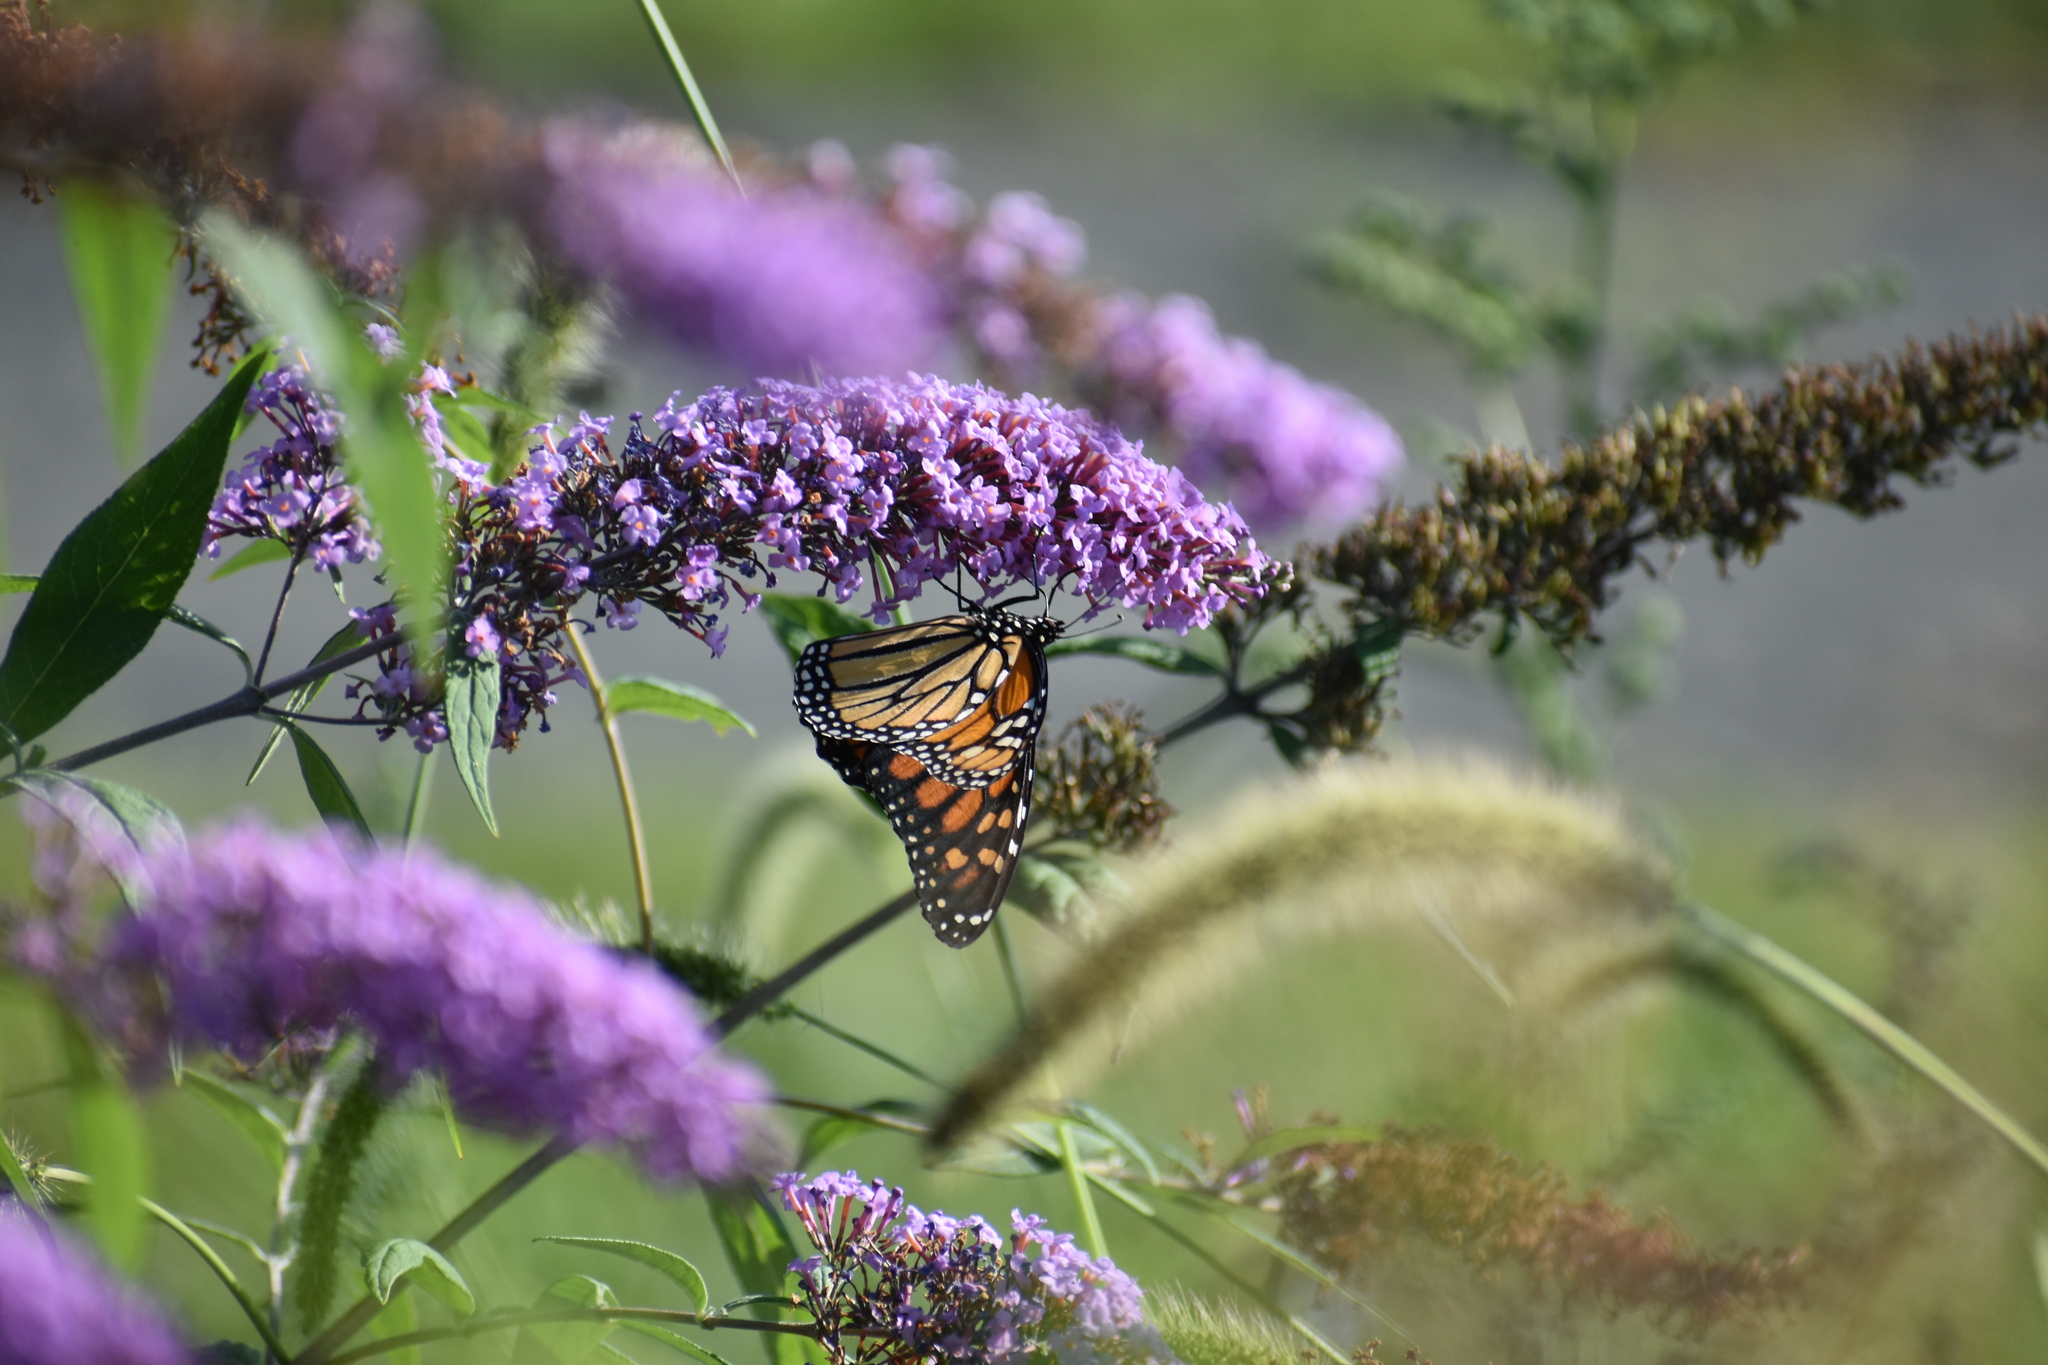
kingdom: Animalia
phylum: Arthropoda
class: Insecta
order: Lepidoptera
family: Nymphalidae
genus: Danaus
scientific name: Danaus plexippus
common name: Monarch
